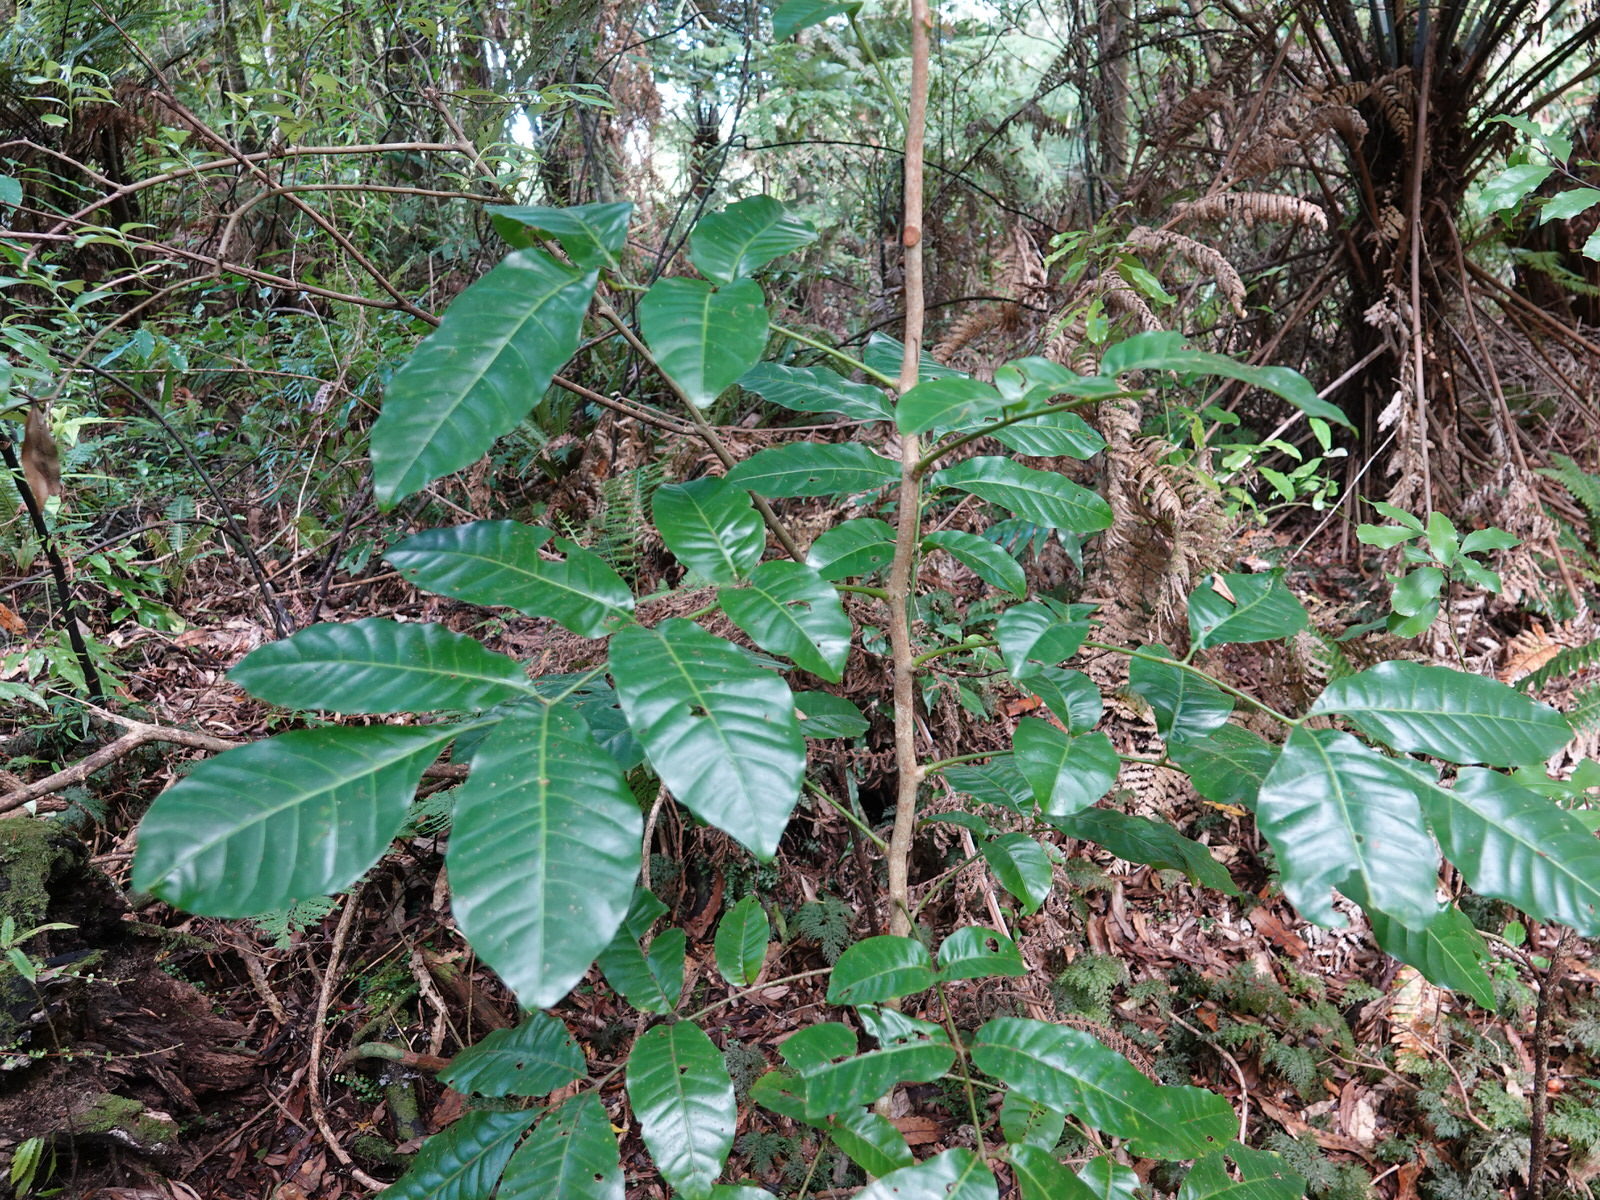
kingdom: Plantae
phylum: Tracheophyta
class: Magnoliopsida
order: Sapindales
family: Meliaceae
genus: Didymocheton
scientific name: Didymocheton spectabilis
